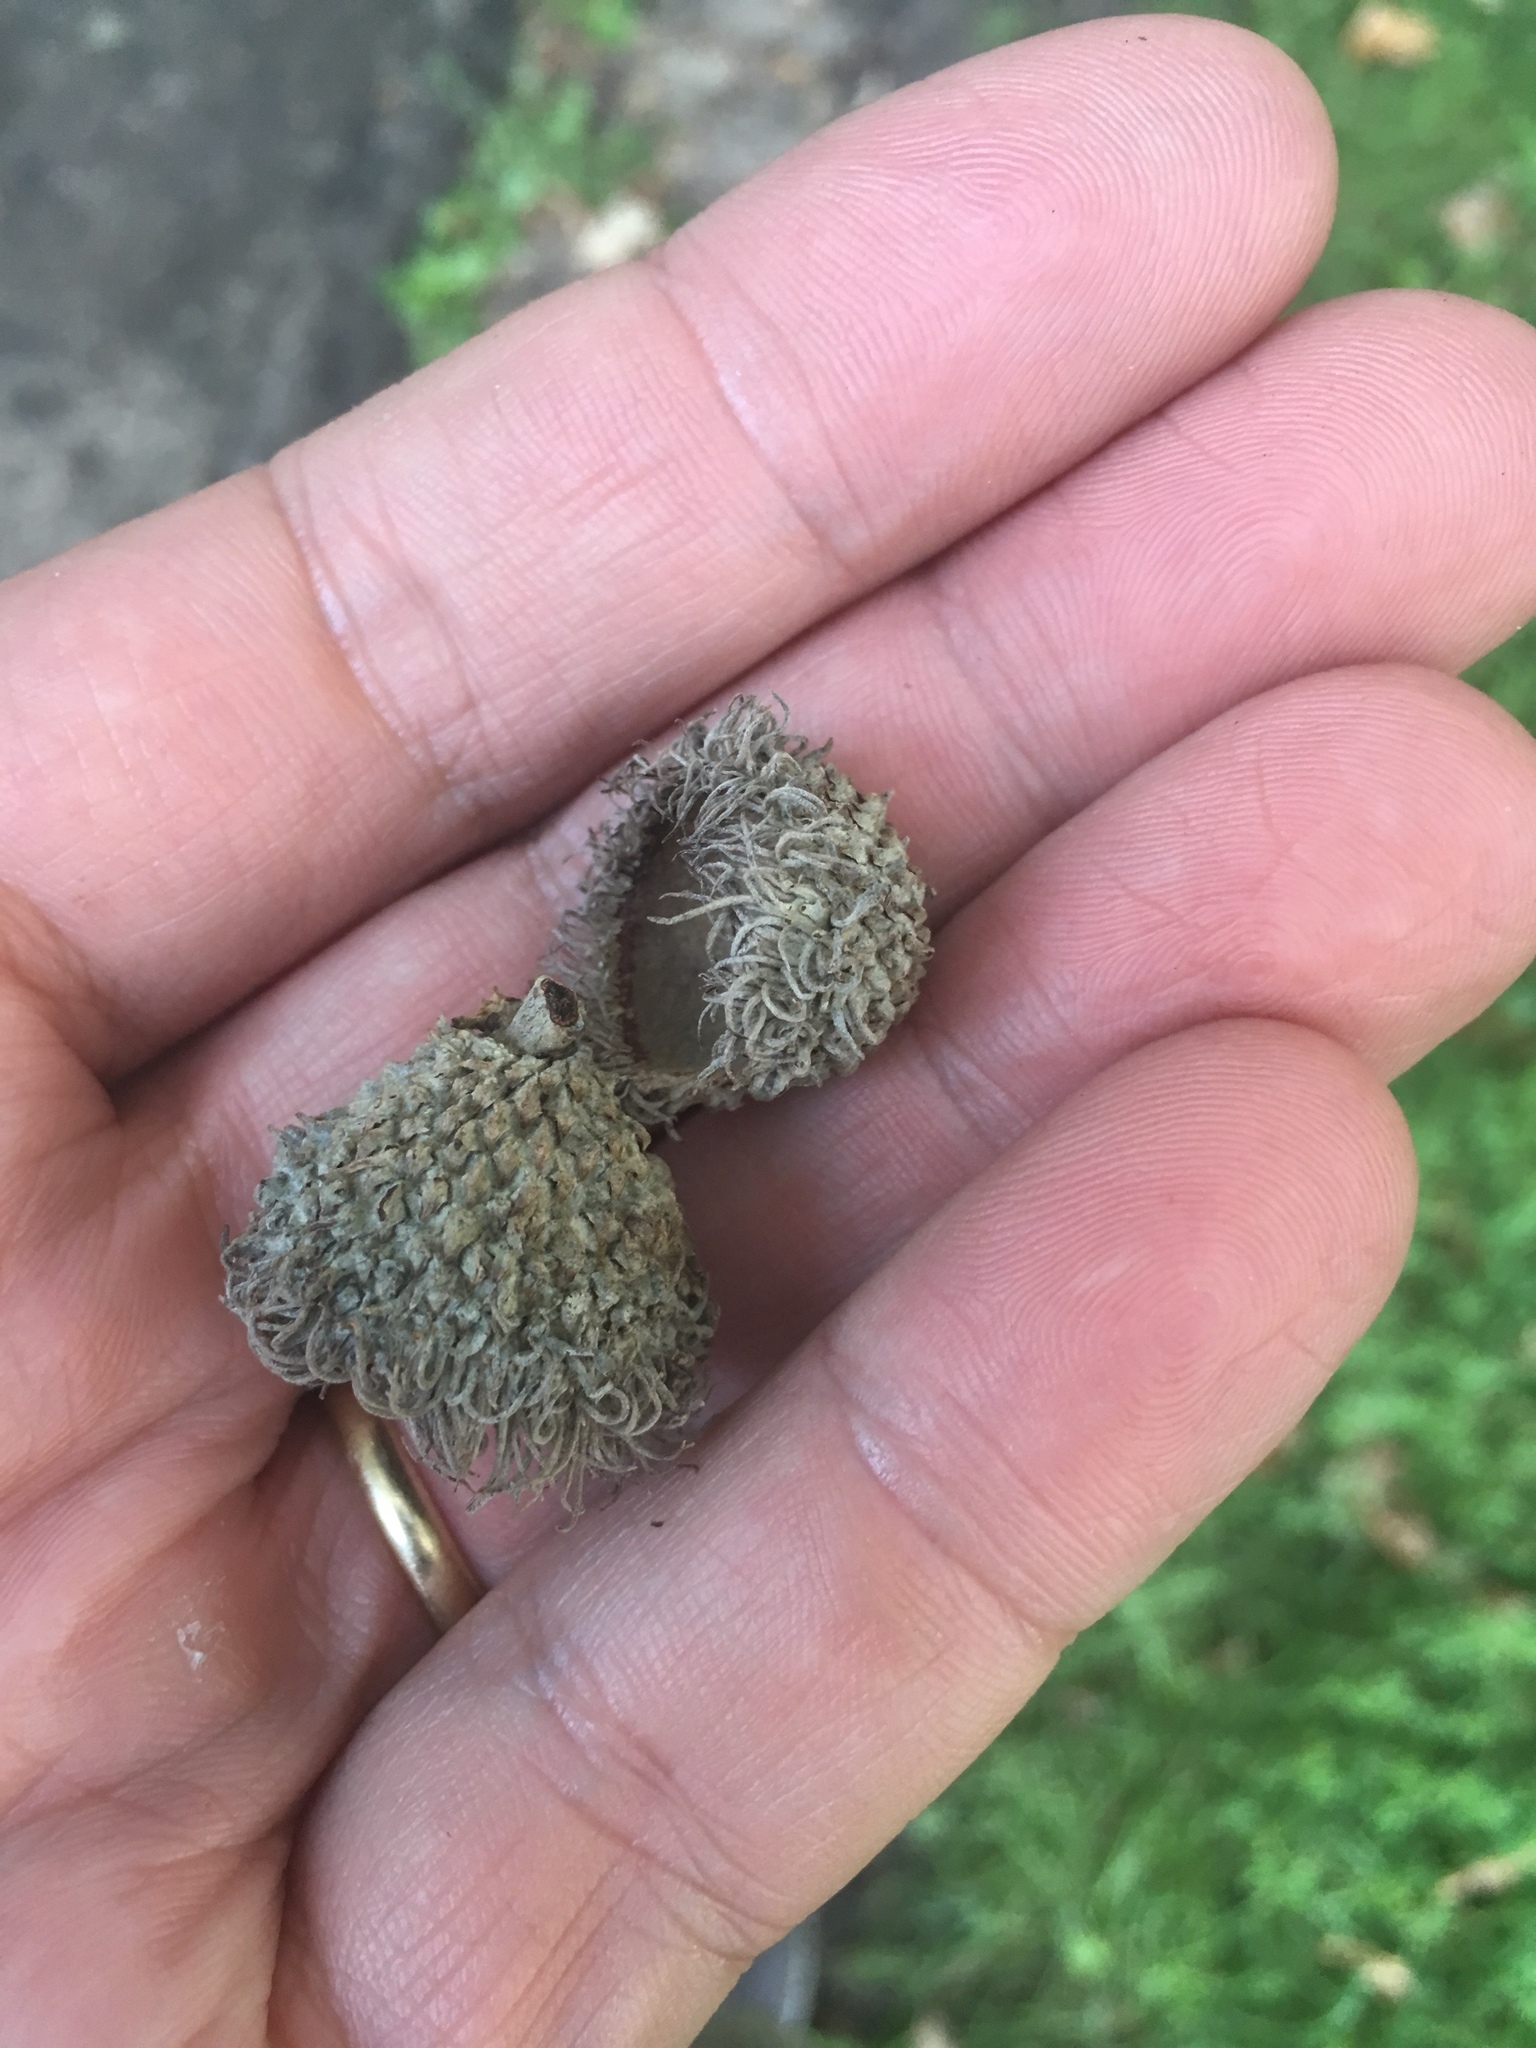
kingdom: Plantae
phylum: Tracheophyta
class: Magnoliopsida
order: Fagales
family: Fagaceae
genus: Quercus
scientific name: Quercus macrocarpa
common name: Bur oak
